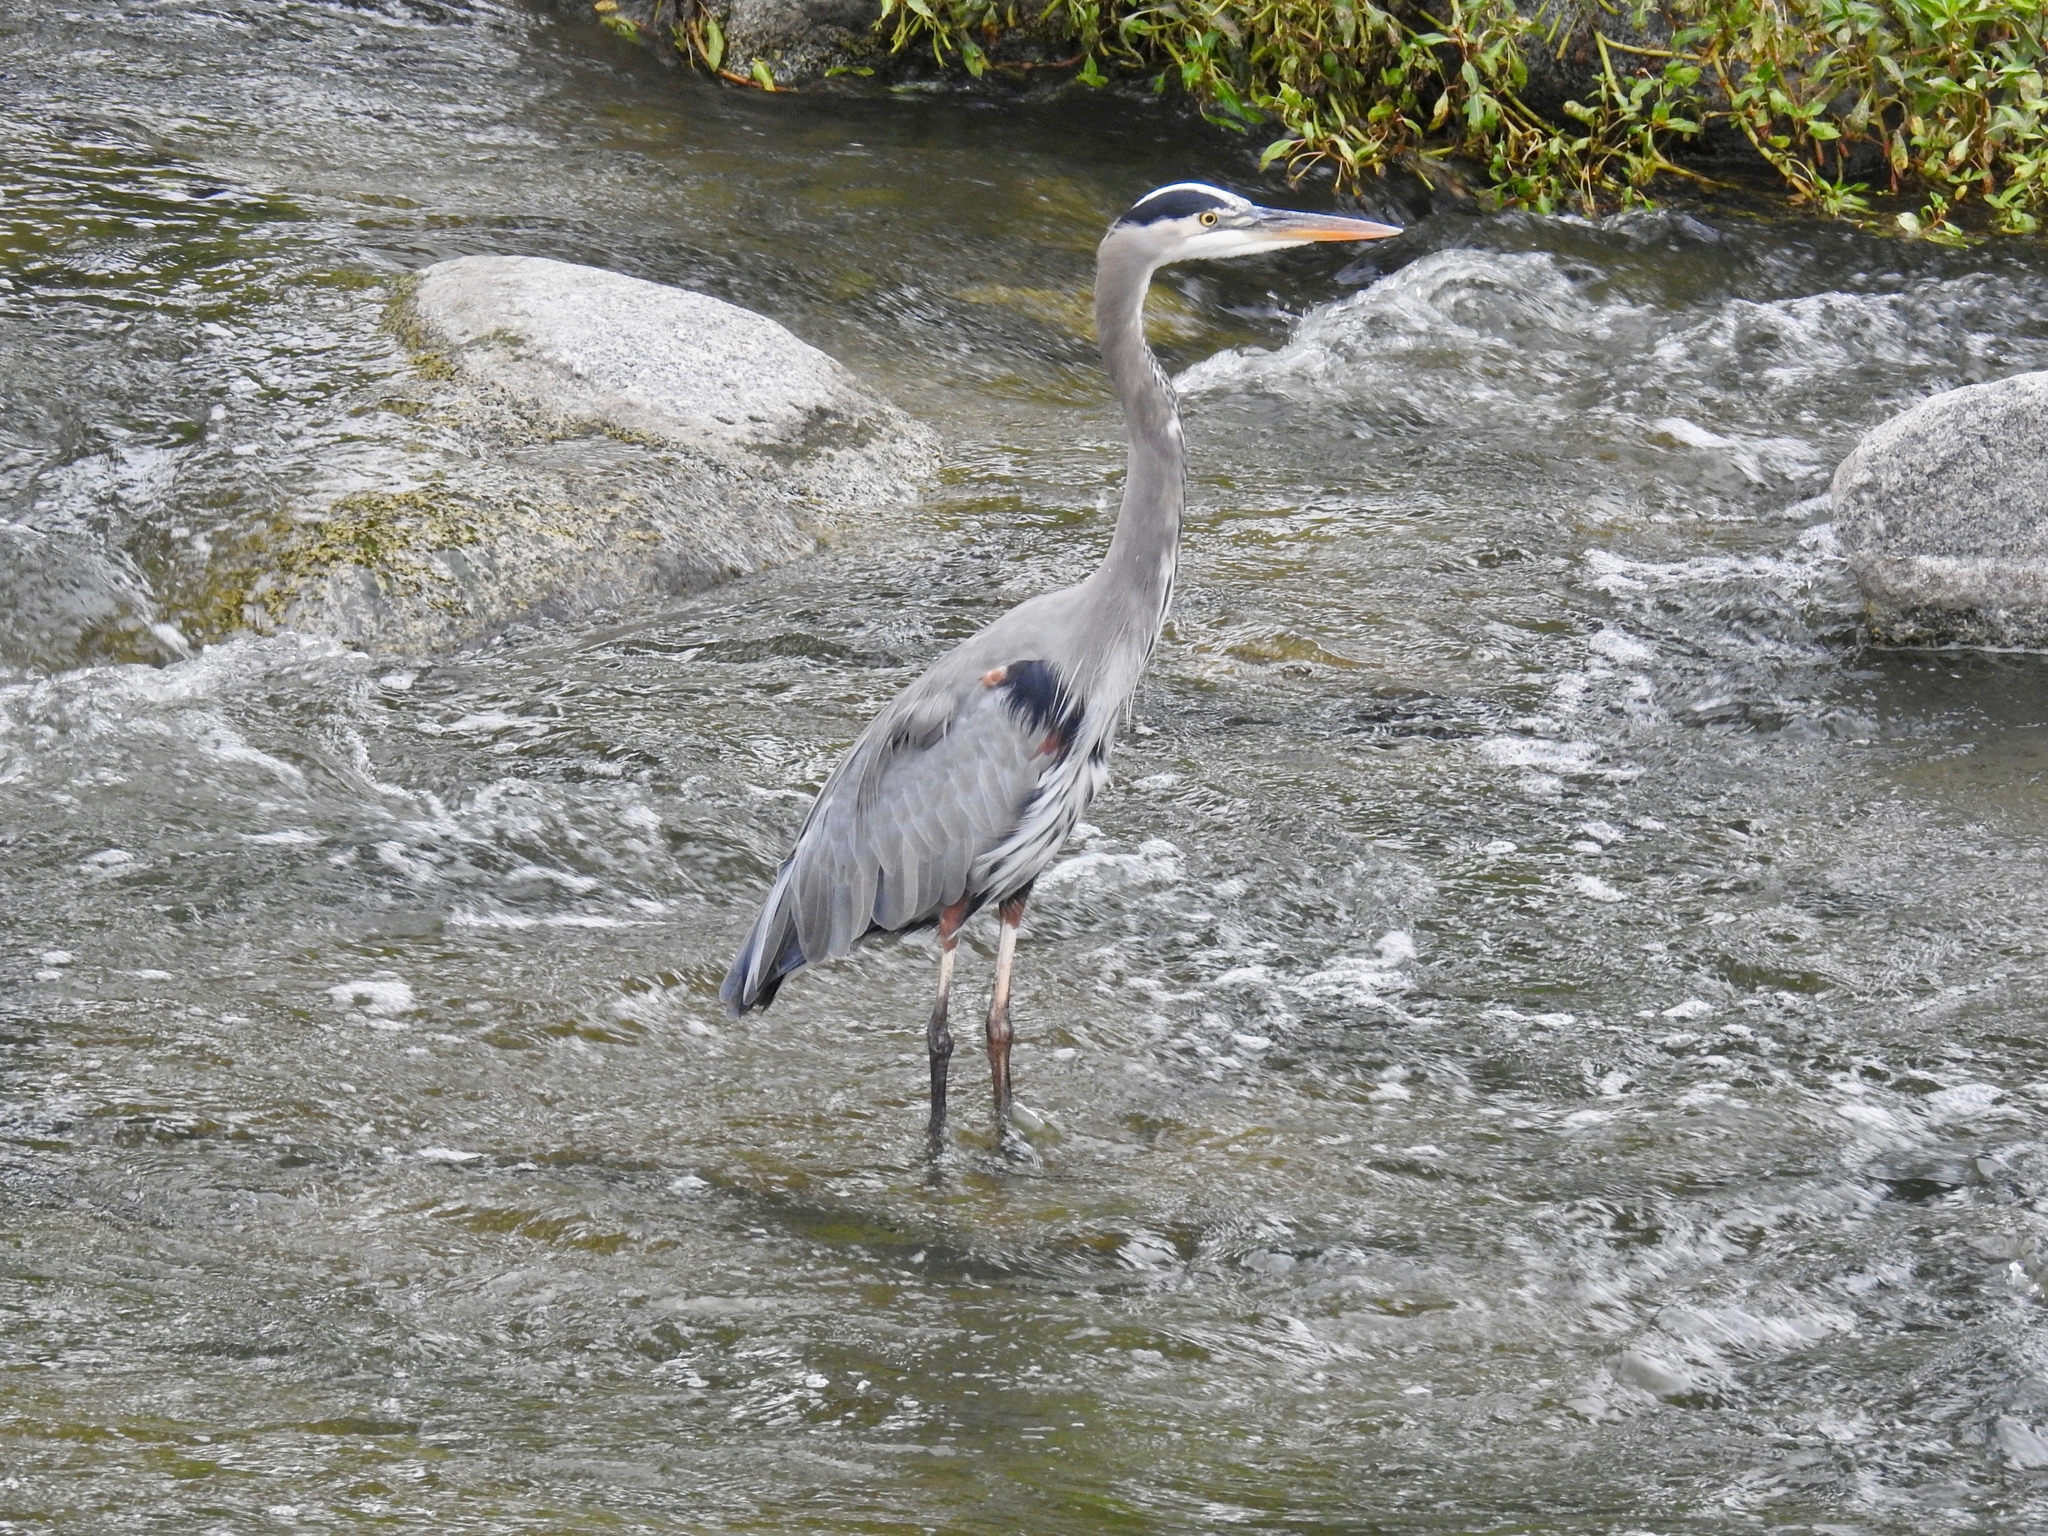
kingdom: Animalia
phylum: Chordata
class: Aves
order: Pelecaniformes
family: Ardeidae
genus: Ardea
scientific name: Ardea herodias
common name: Great blue heron
